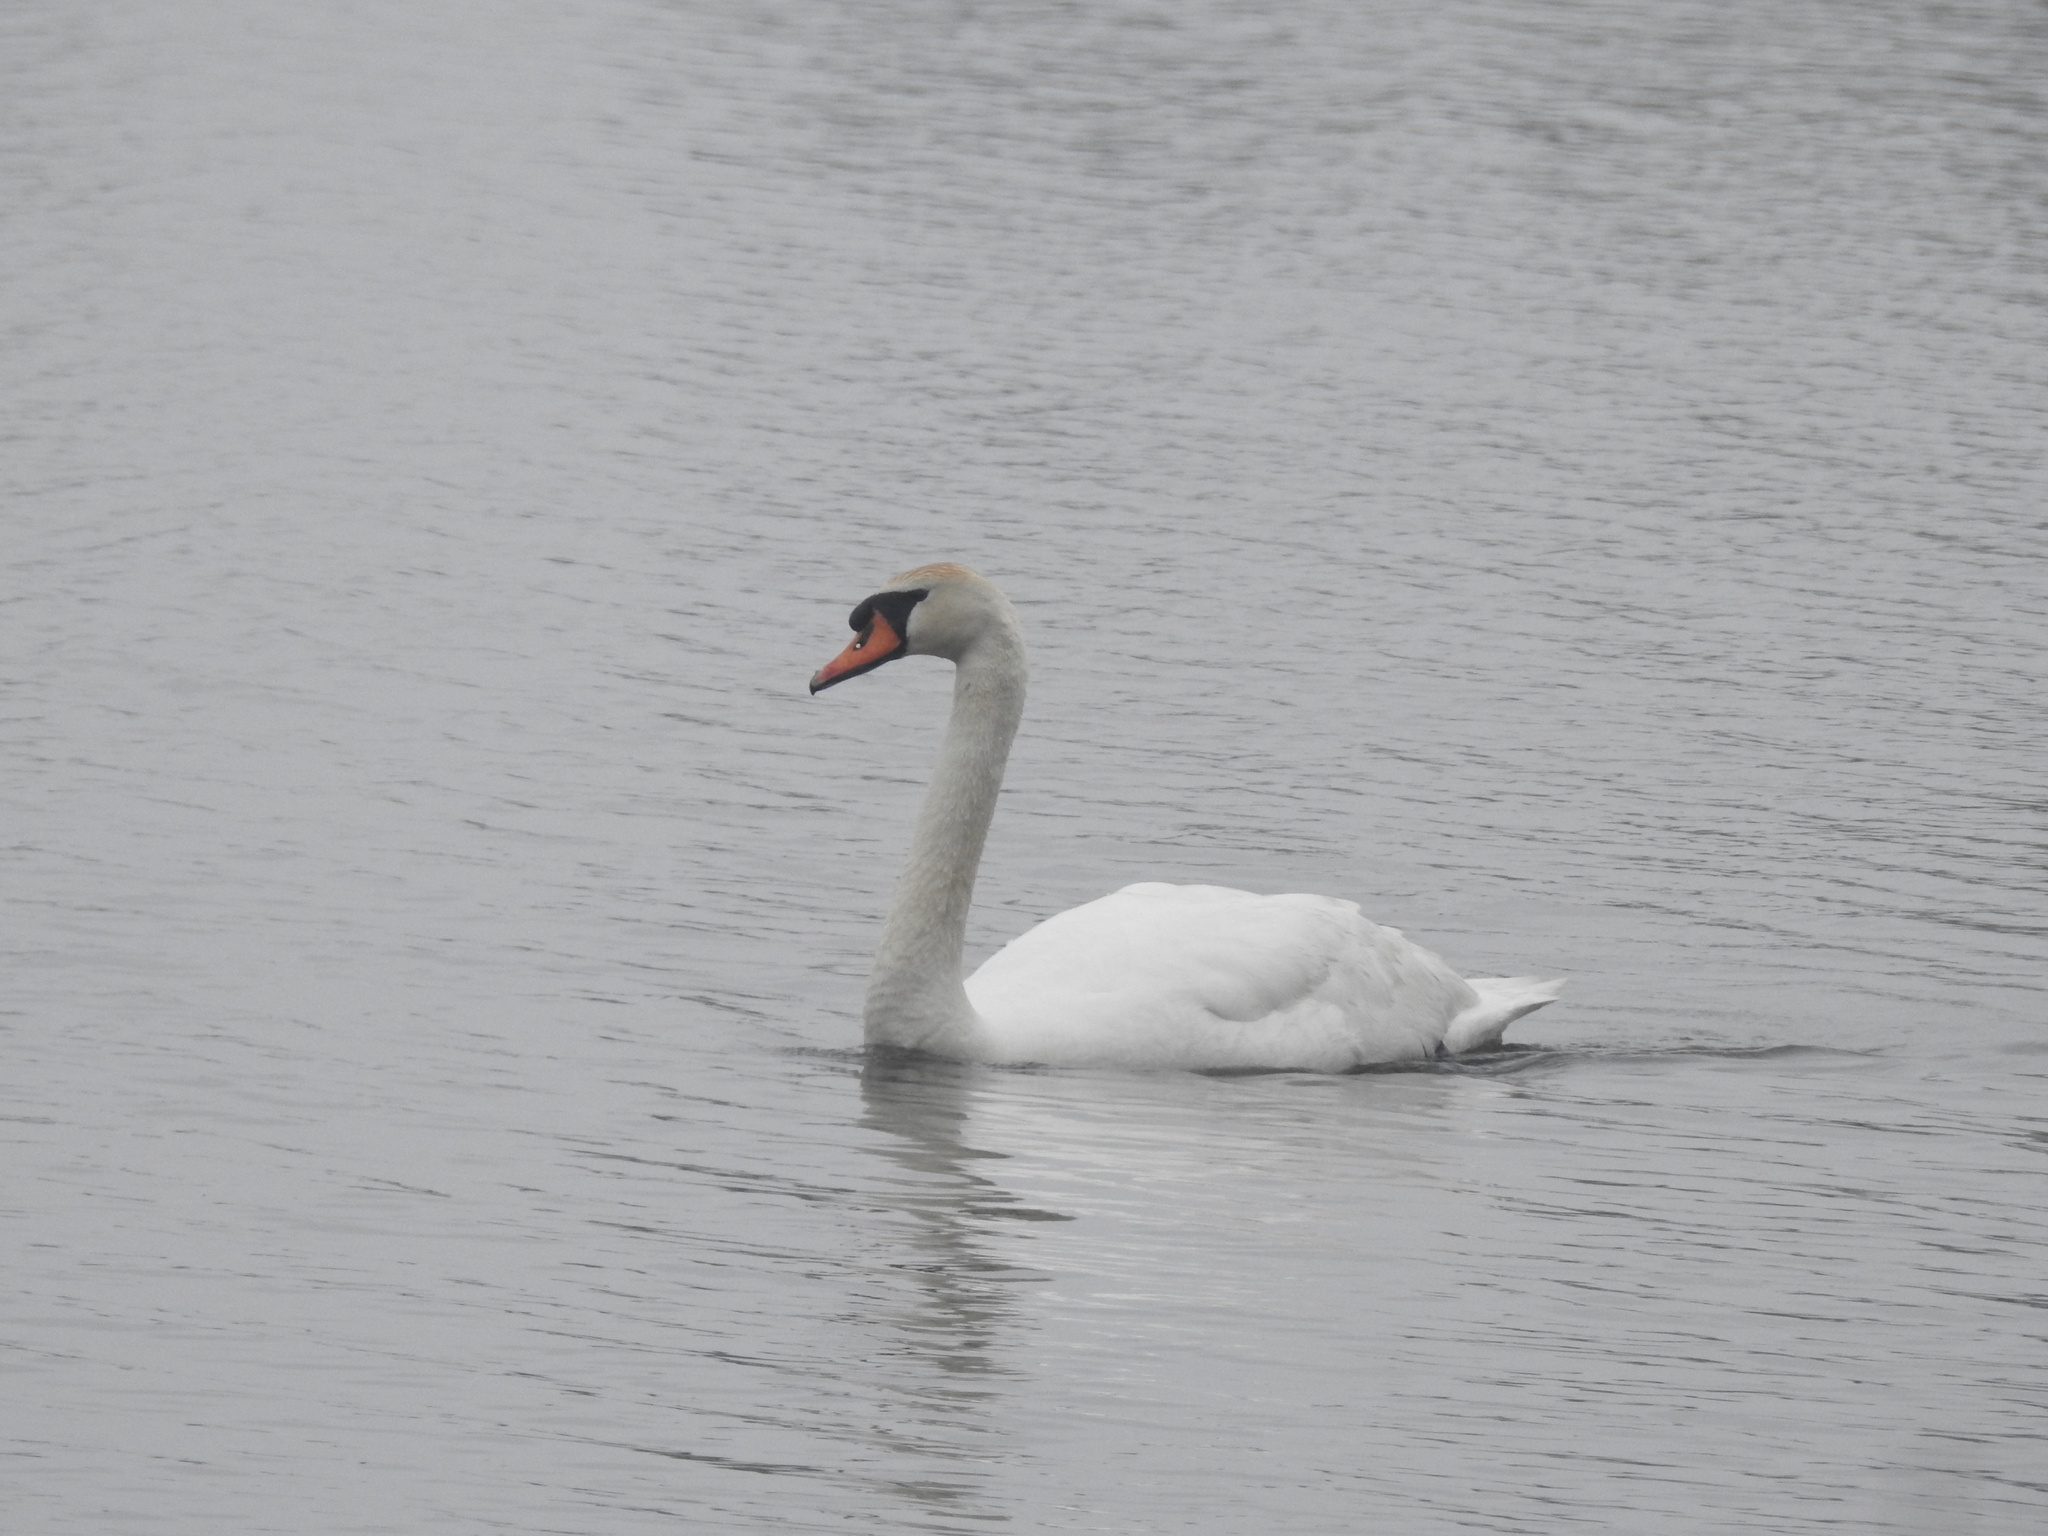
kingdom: Animalia
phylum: Chordata
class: Aves
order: Anseriformes
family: Anatidae
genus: Cygnus
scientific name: Cygnus olor
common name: Mute swan
